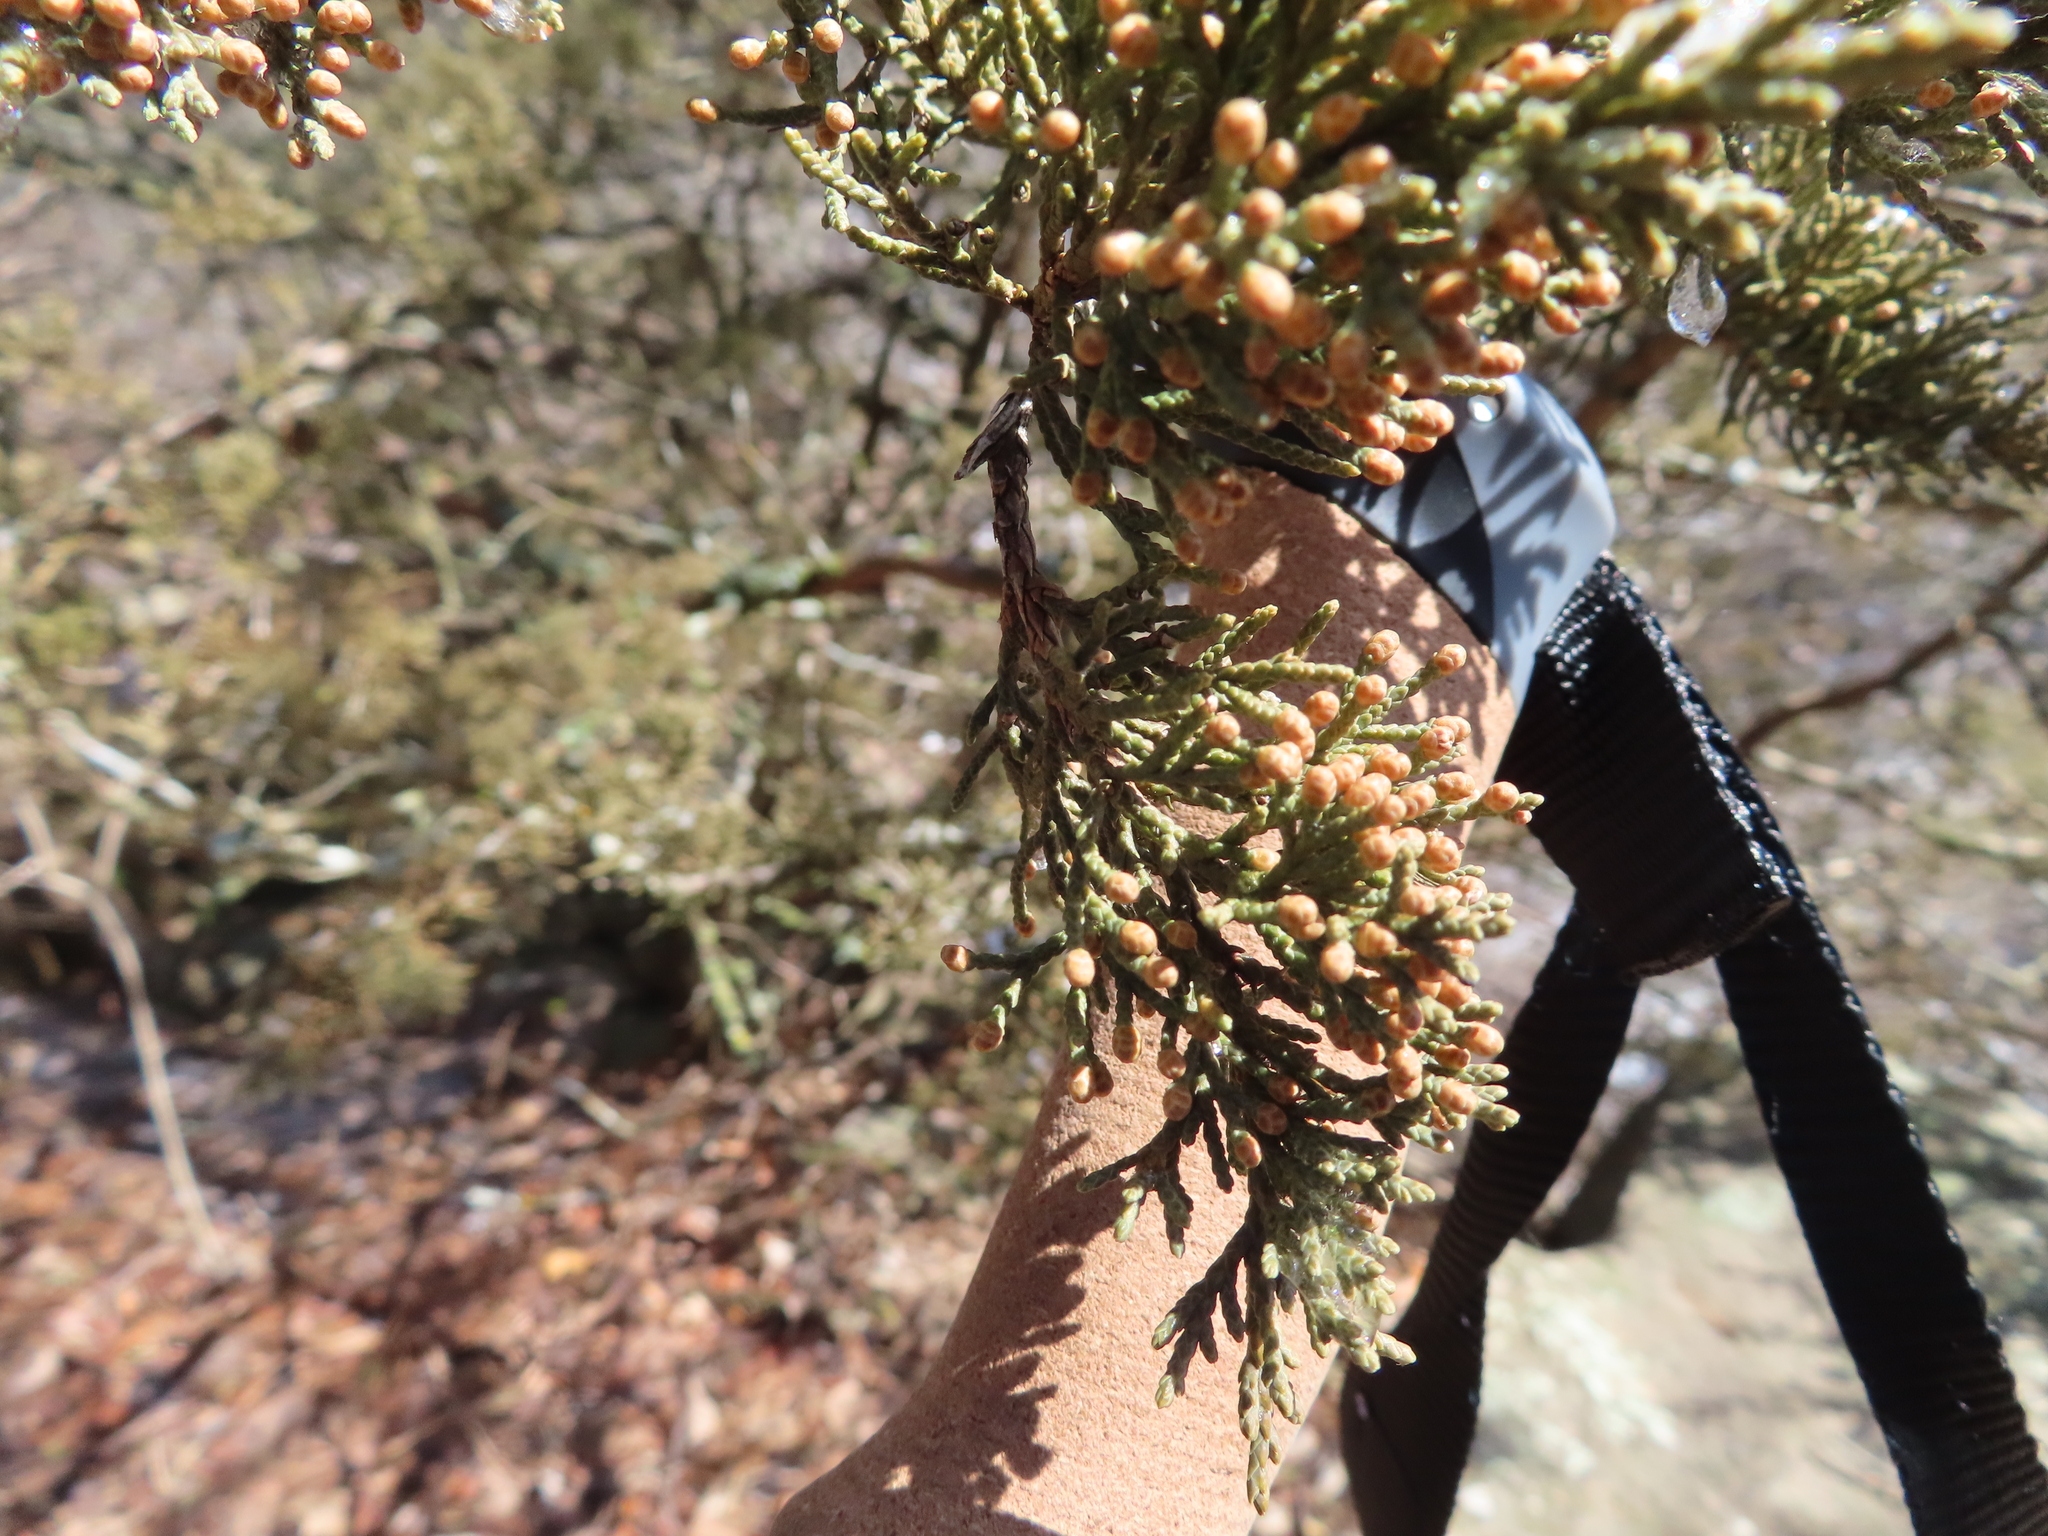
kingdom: Plantae
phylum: Tracheophyta
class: Pinopsida
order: Pinales
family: Cupressaceae
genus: Juniperus
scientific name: Juniperus virginiana
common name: Red juniper
